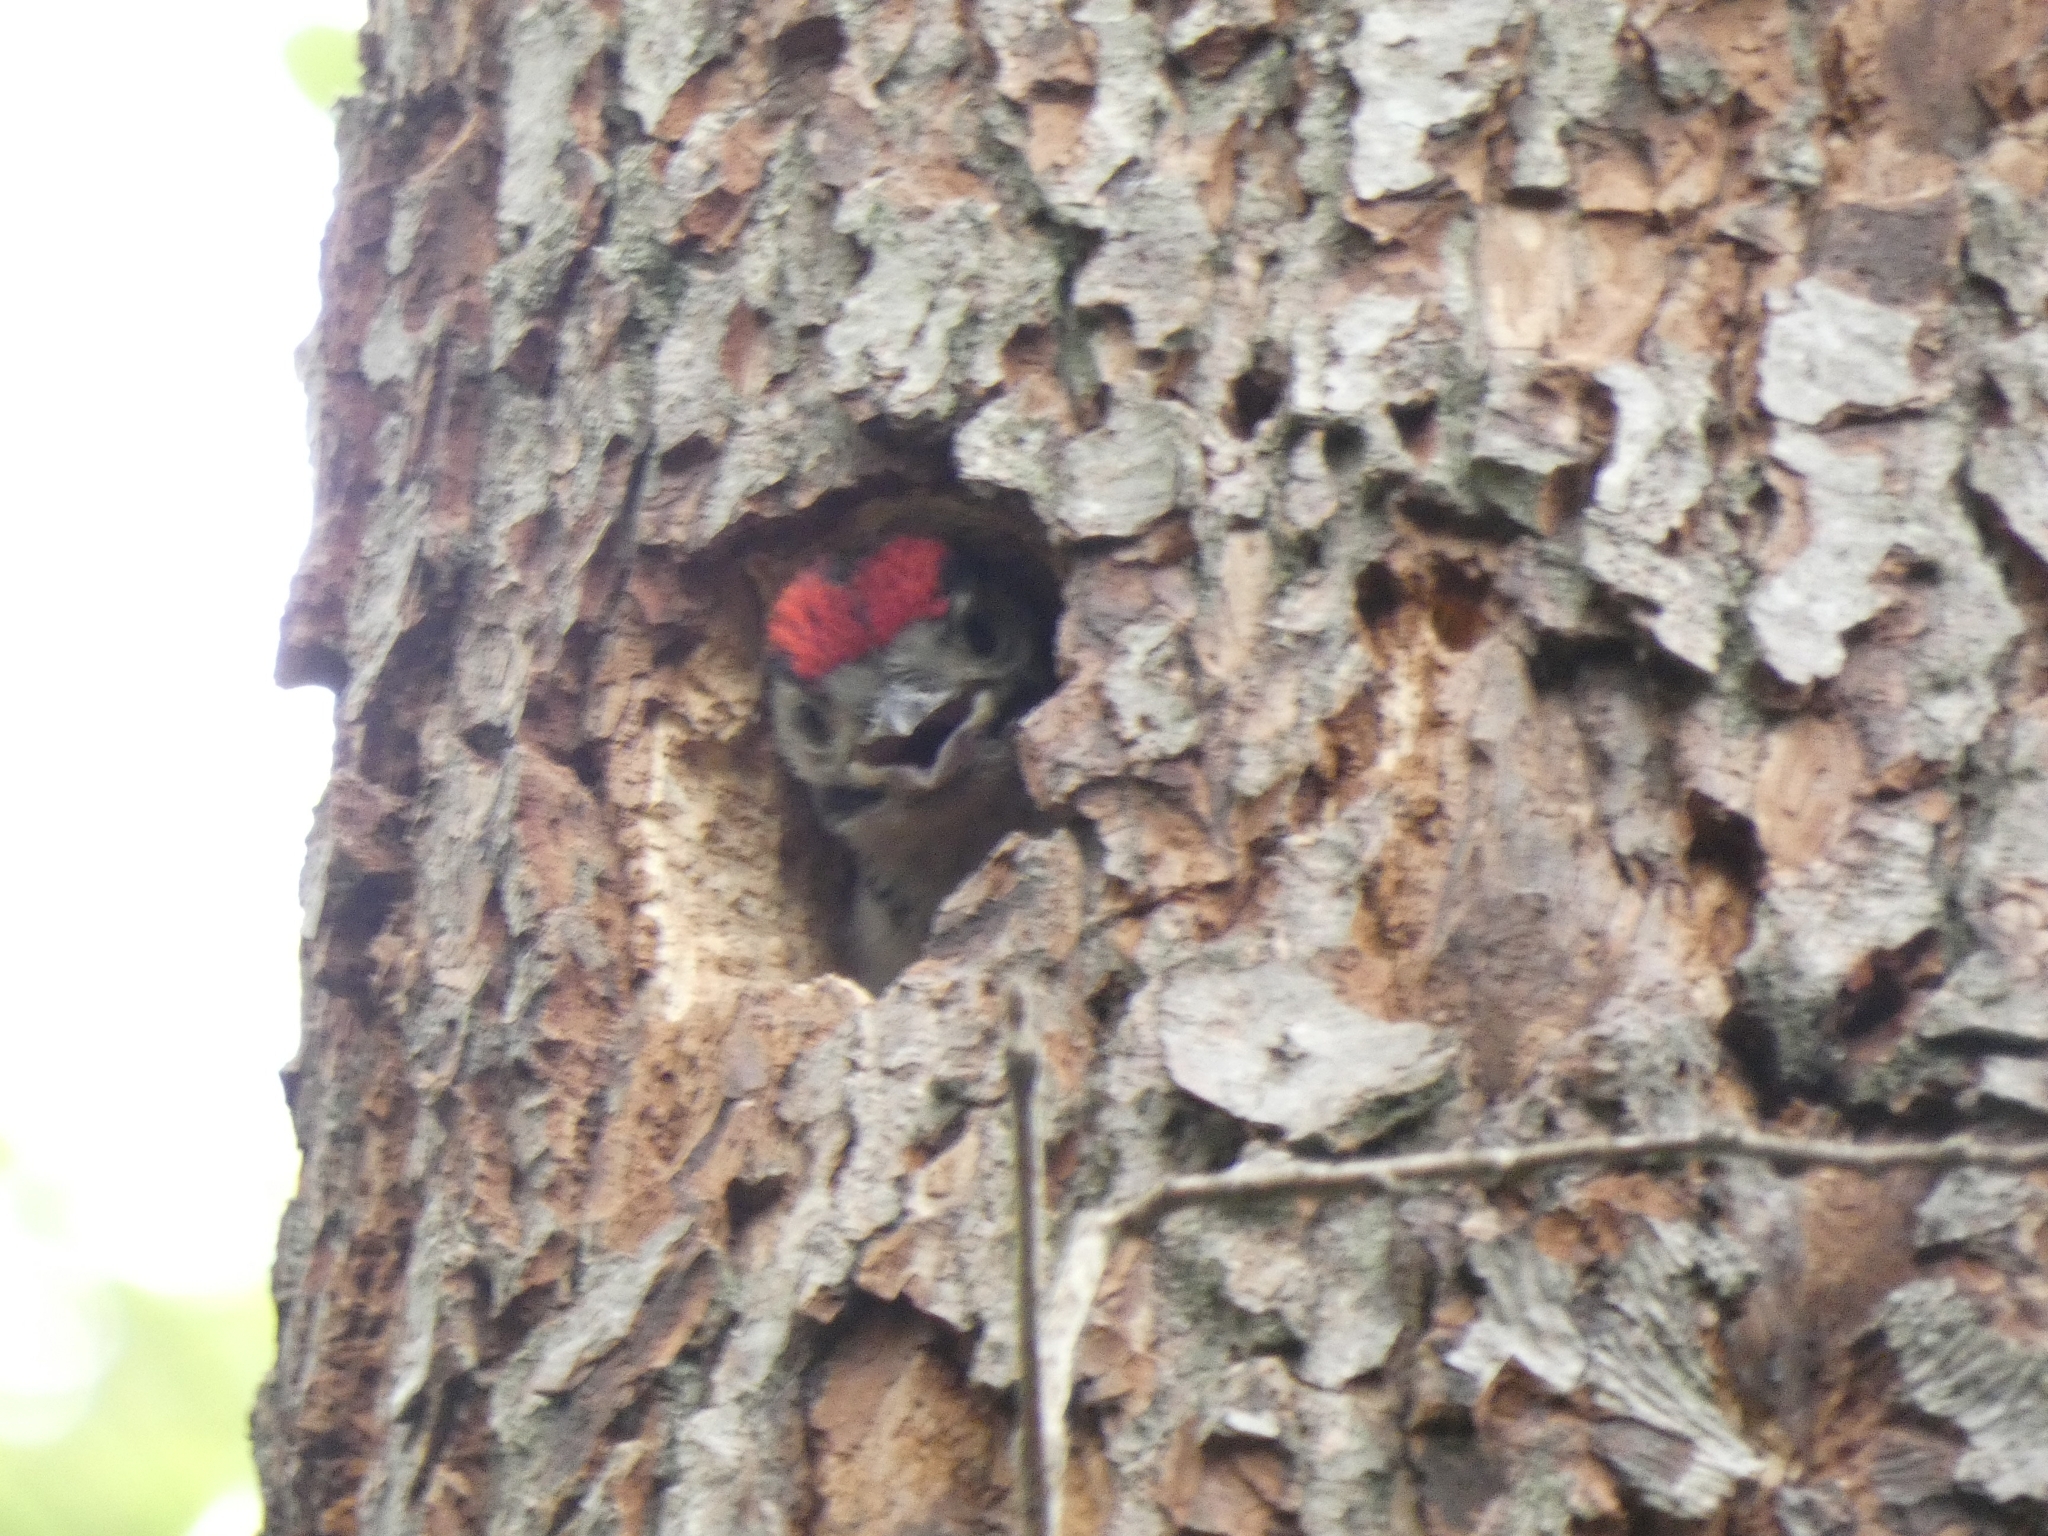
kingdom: Animalia
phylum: Chordata
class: Aves
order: Piciformes
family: Picidae
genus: Dendrocopos
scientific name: Dendrocopos major
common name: Great spotted woodpecker
